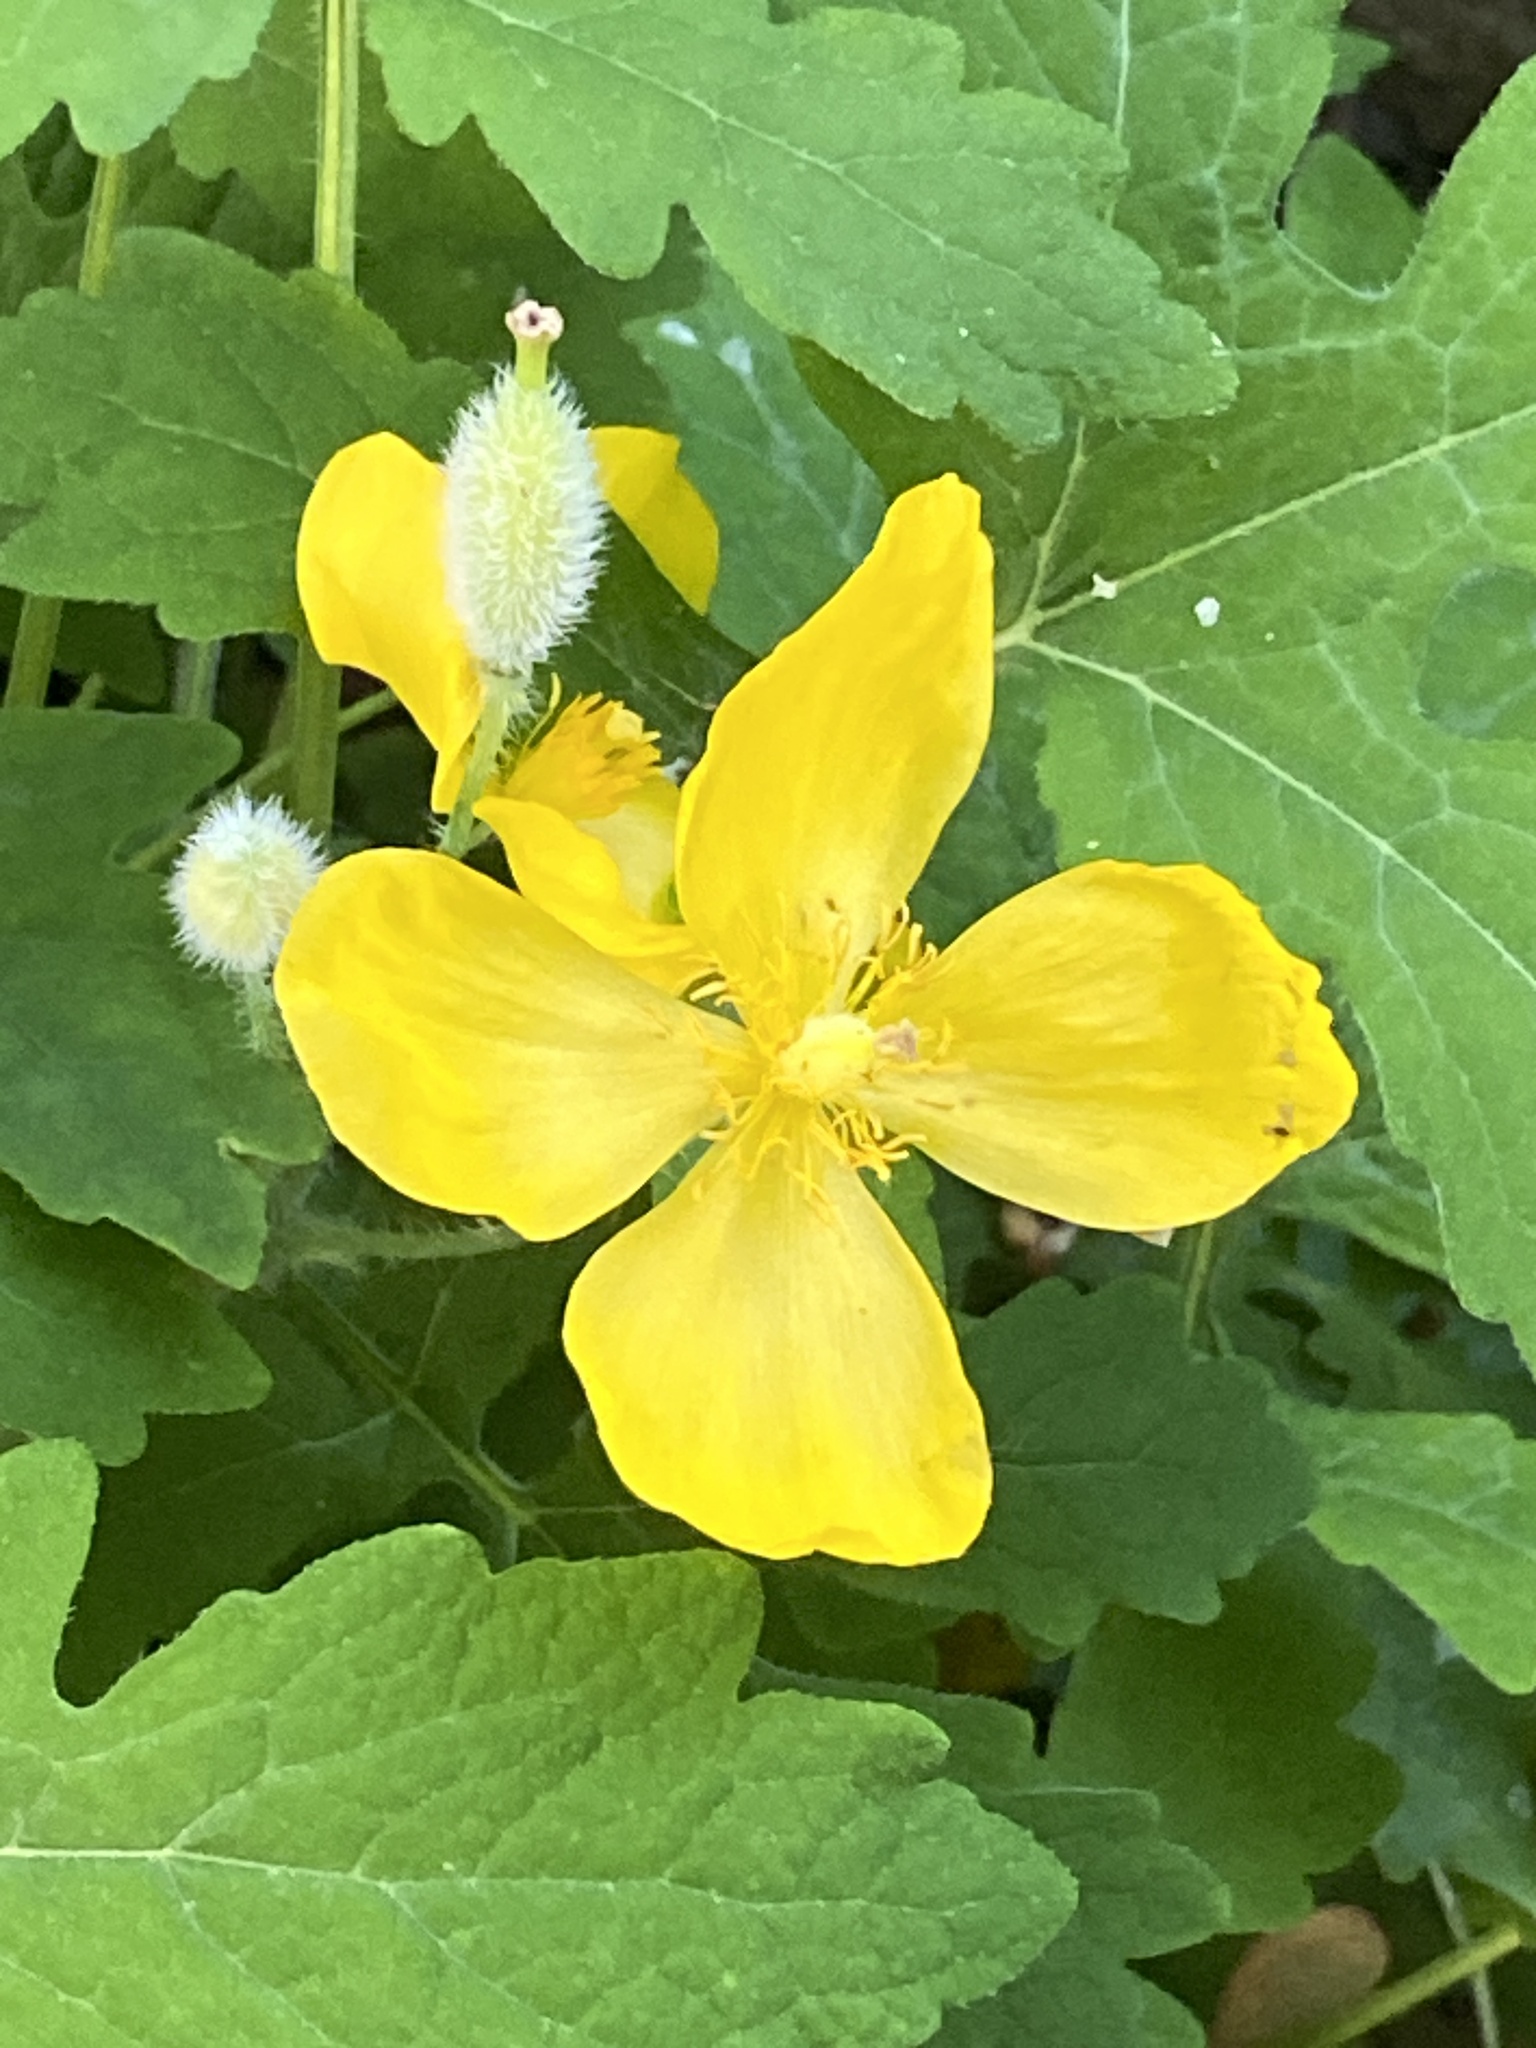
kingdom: Plantae
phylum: Tracheophyta
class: Magnoliopsida
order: Ranunculales
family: Papaveraceae
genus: Stylophorum
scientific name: Stylophorum diphyllum
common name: Celandine poppy
